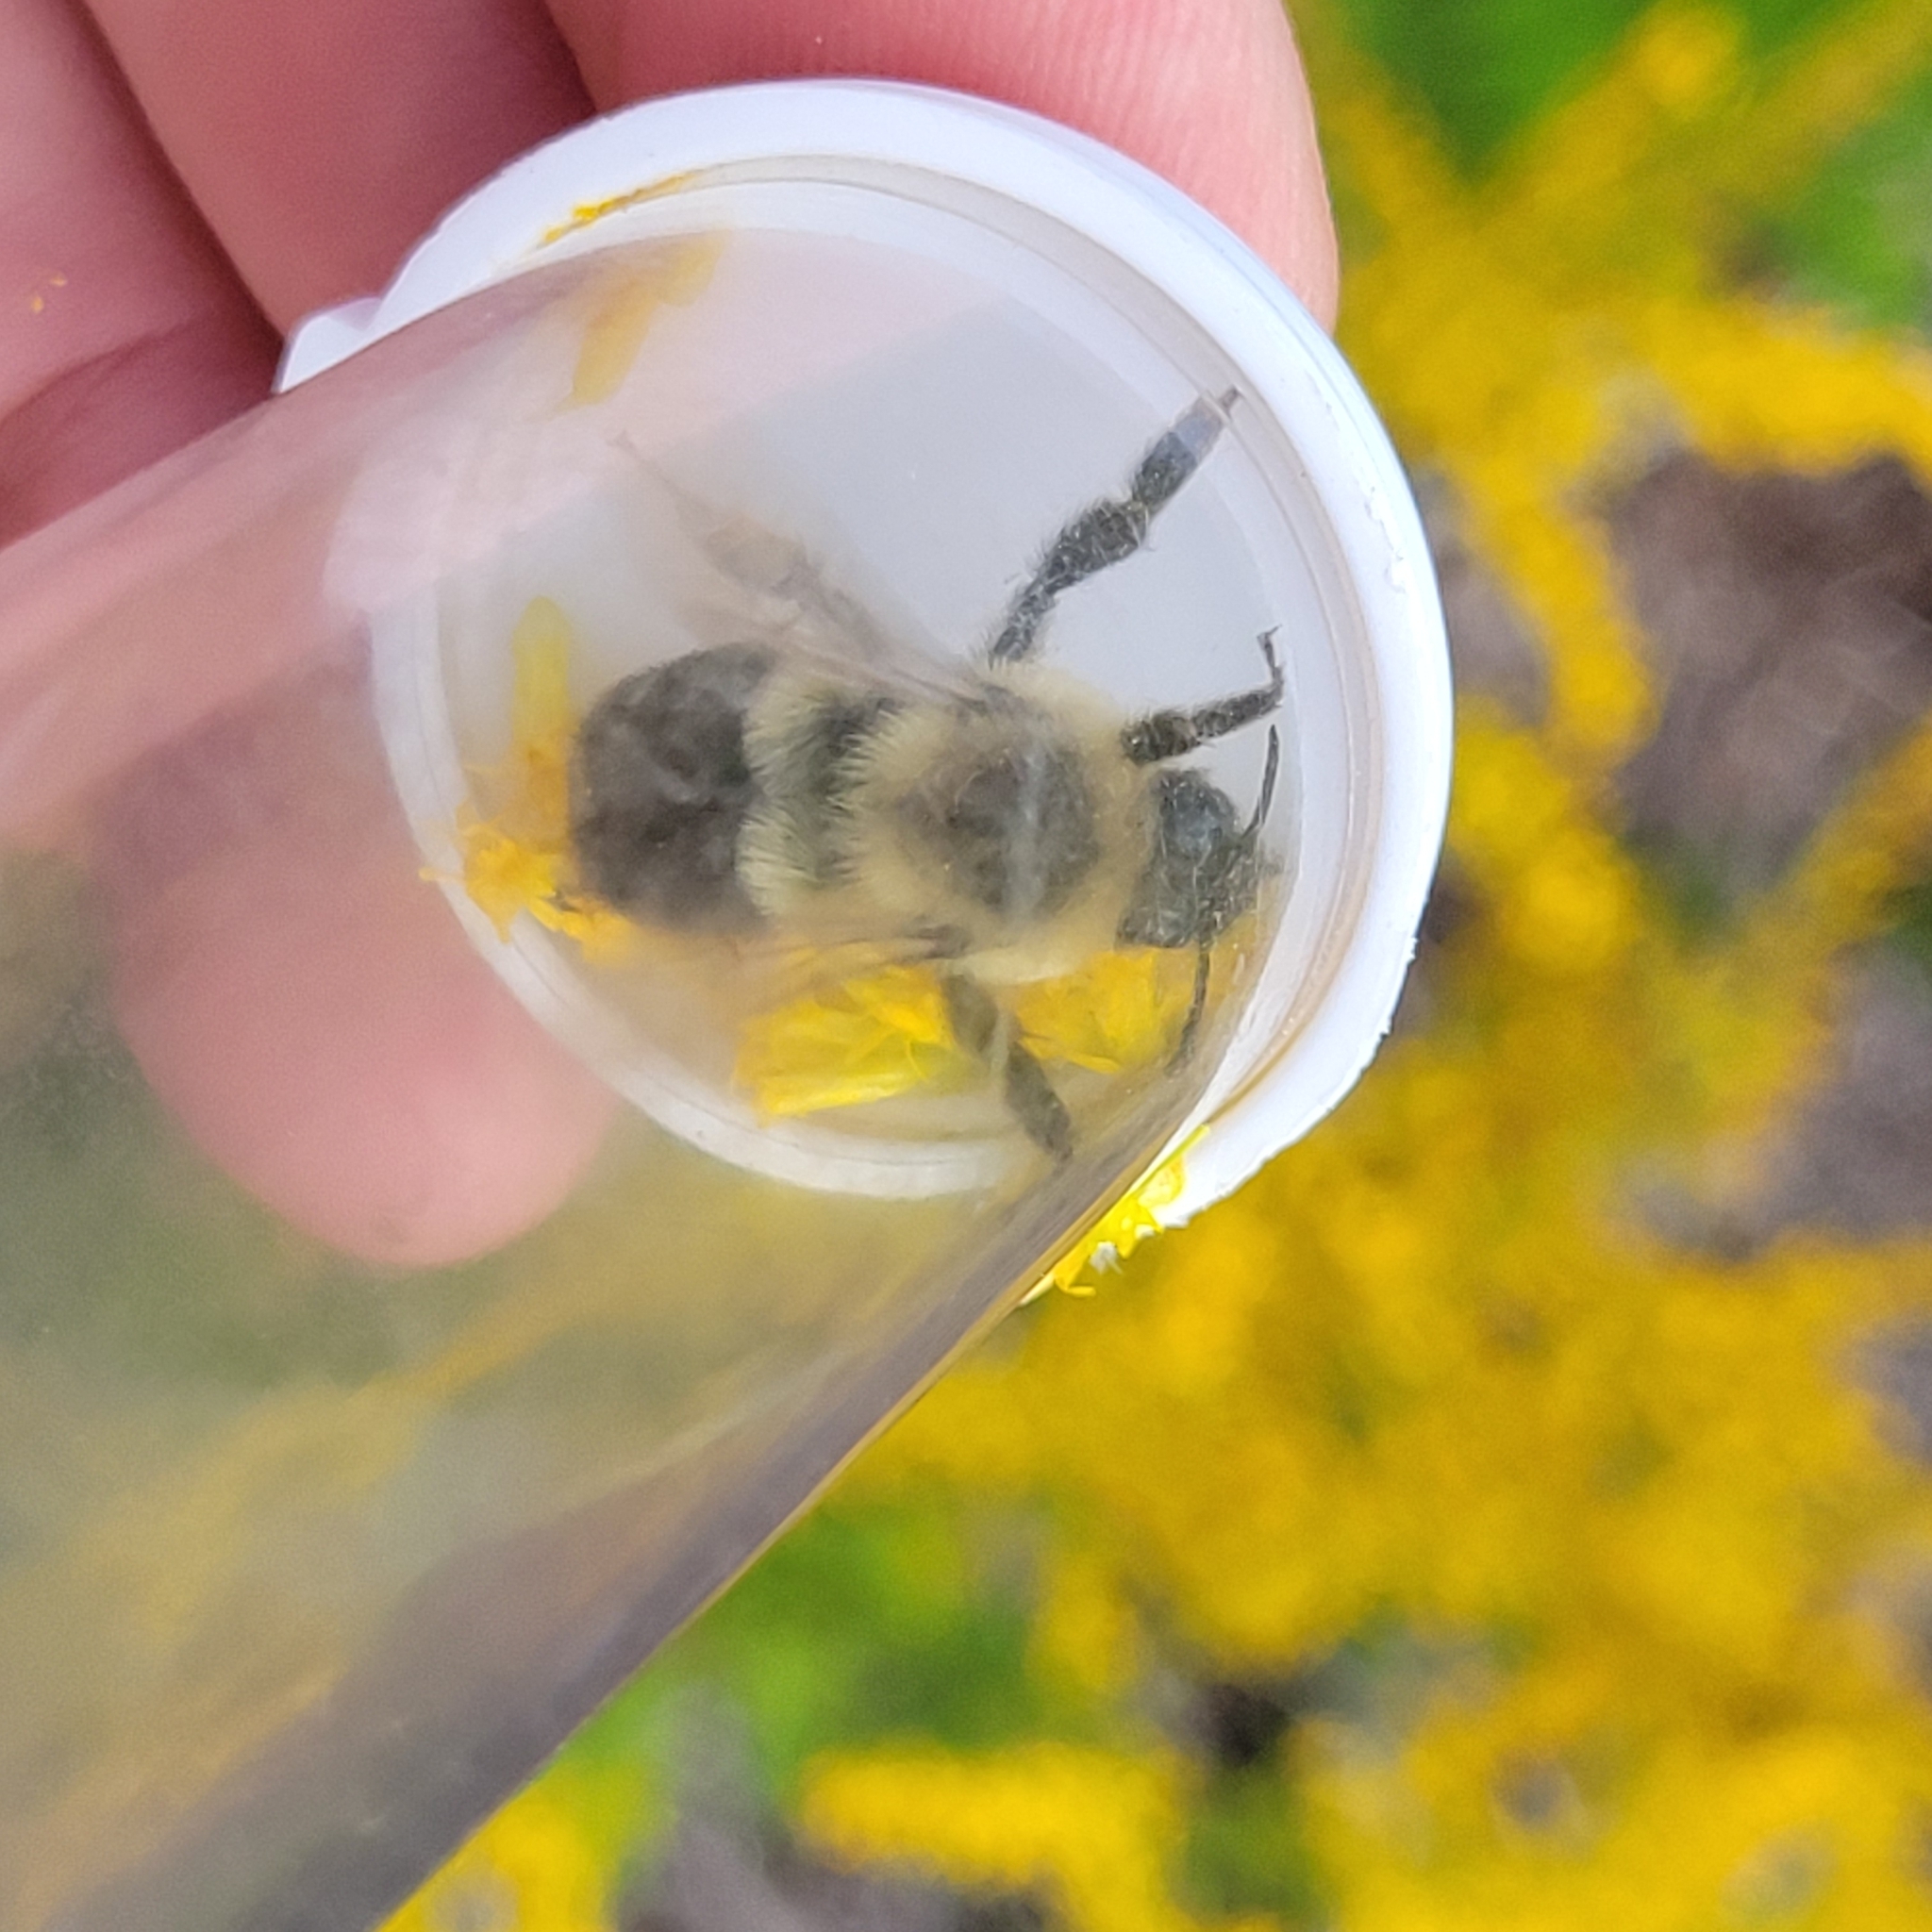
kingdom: Animalia
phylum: Arthropoda
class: Insecta
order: Hymenoptera
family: Apidae
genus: Bombus
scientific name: Bombus impatiens
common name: Common eastern bumble bee
